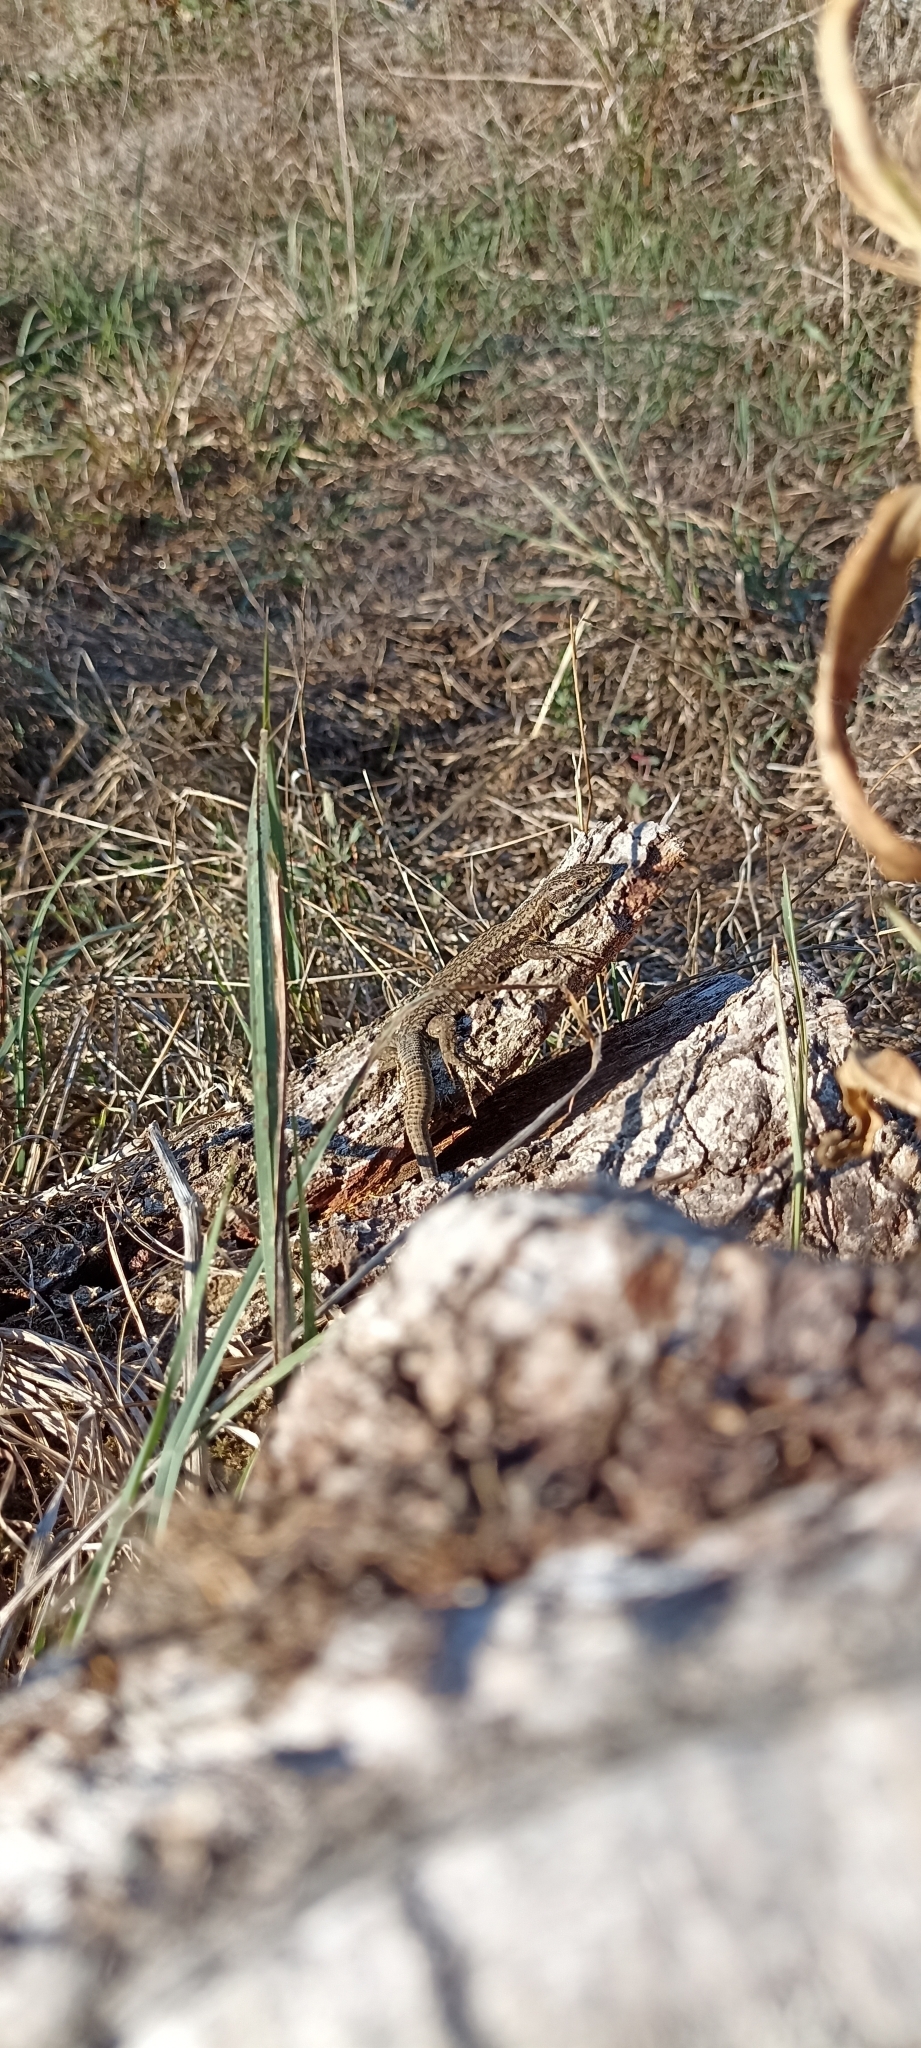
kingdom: Animalia
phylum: Chordata
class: Squamata
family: Lacertidae
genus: Podarcis
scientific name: Podarcis muralis
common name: Common wall lizard
